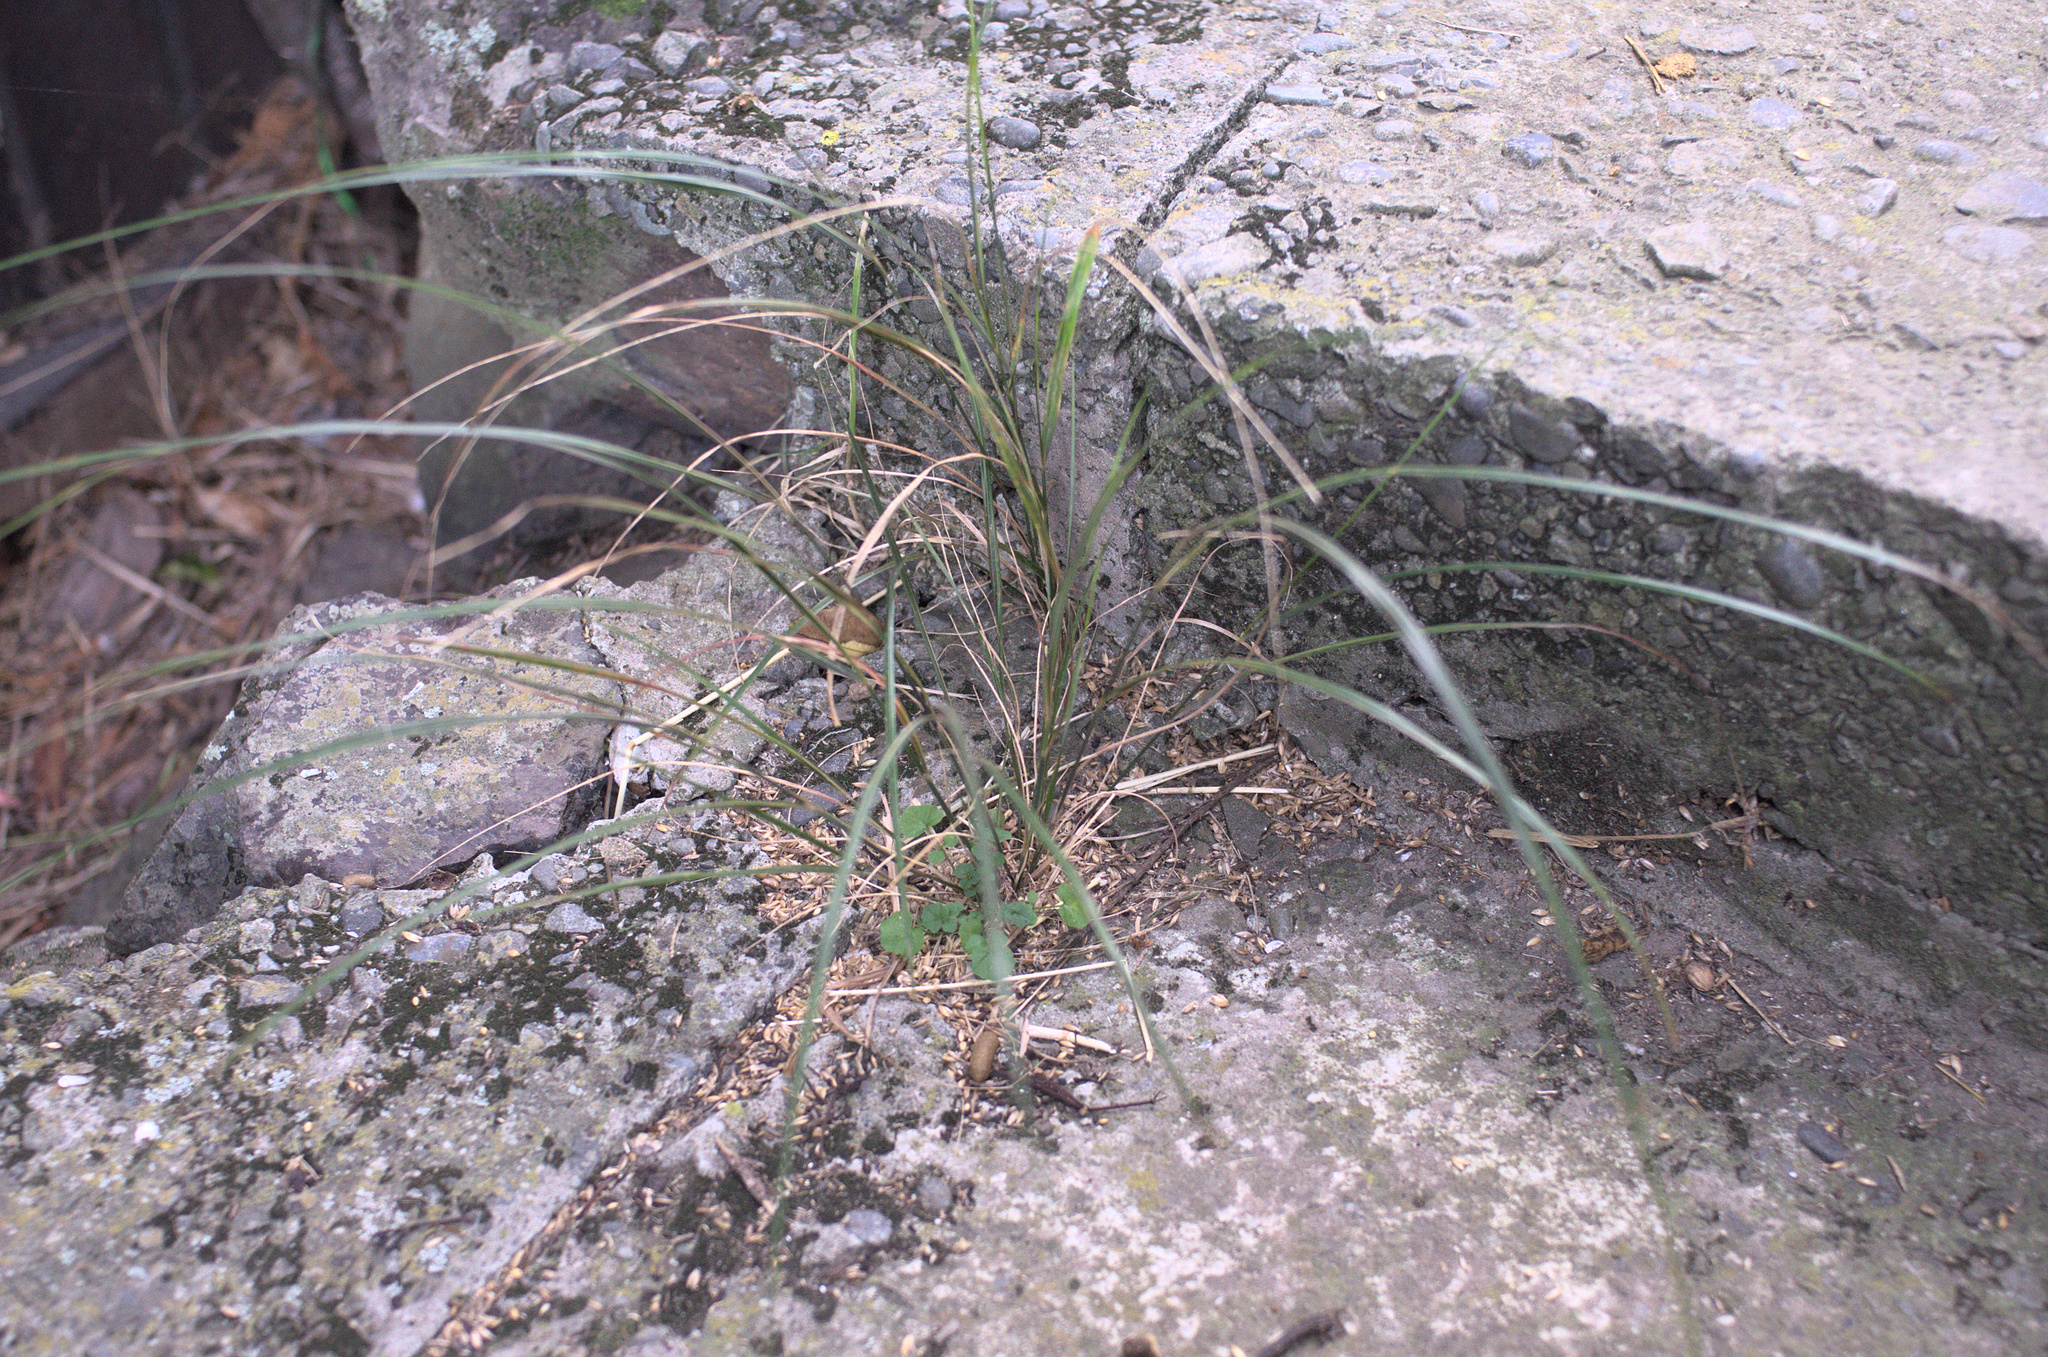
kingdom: Plantae
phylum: Tracheophyta
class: Liliopsida
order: Poales
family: Poaceae
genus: Anemanthele
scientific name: Anemanthele lessoniana
